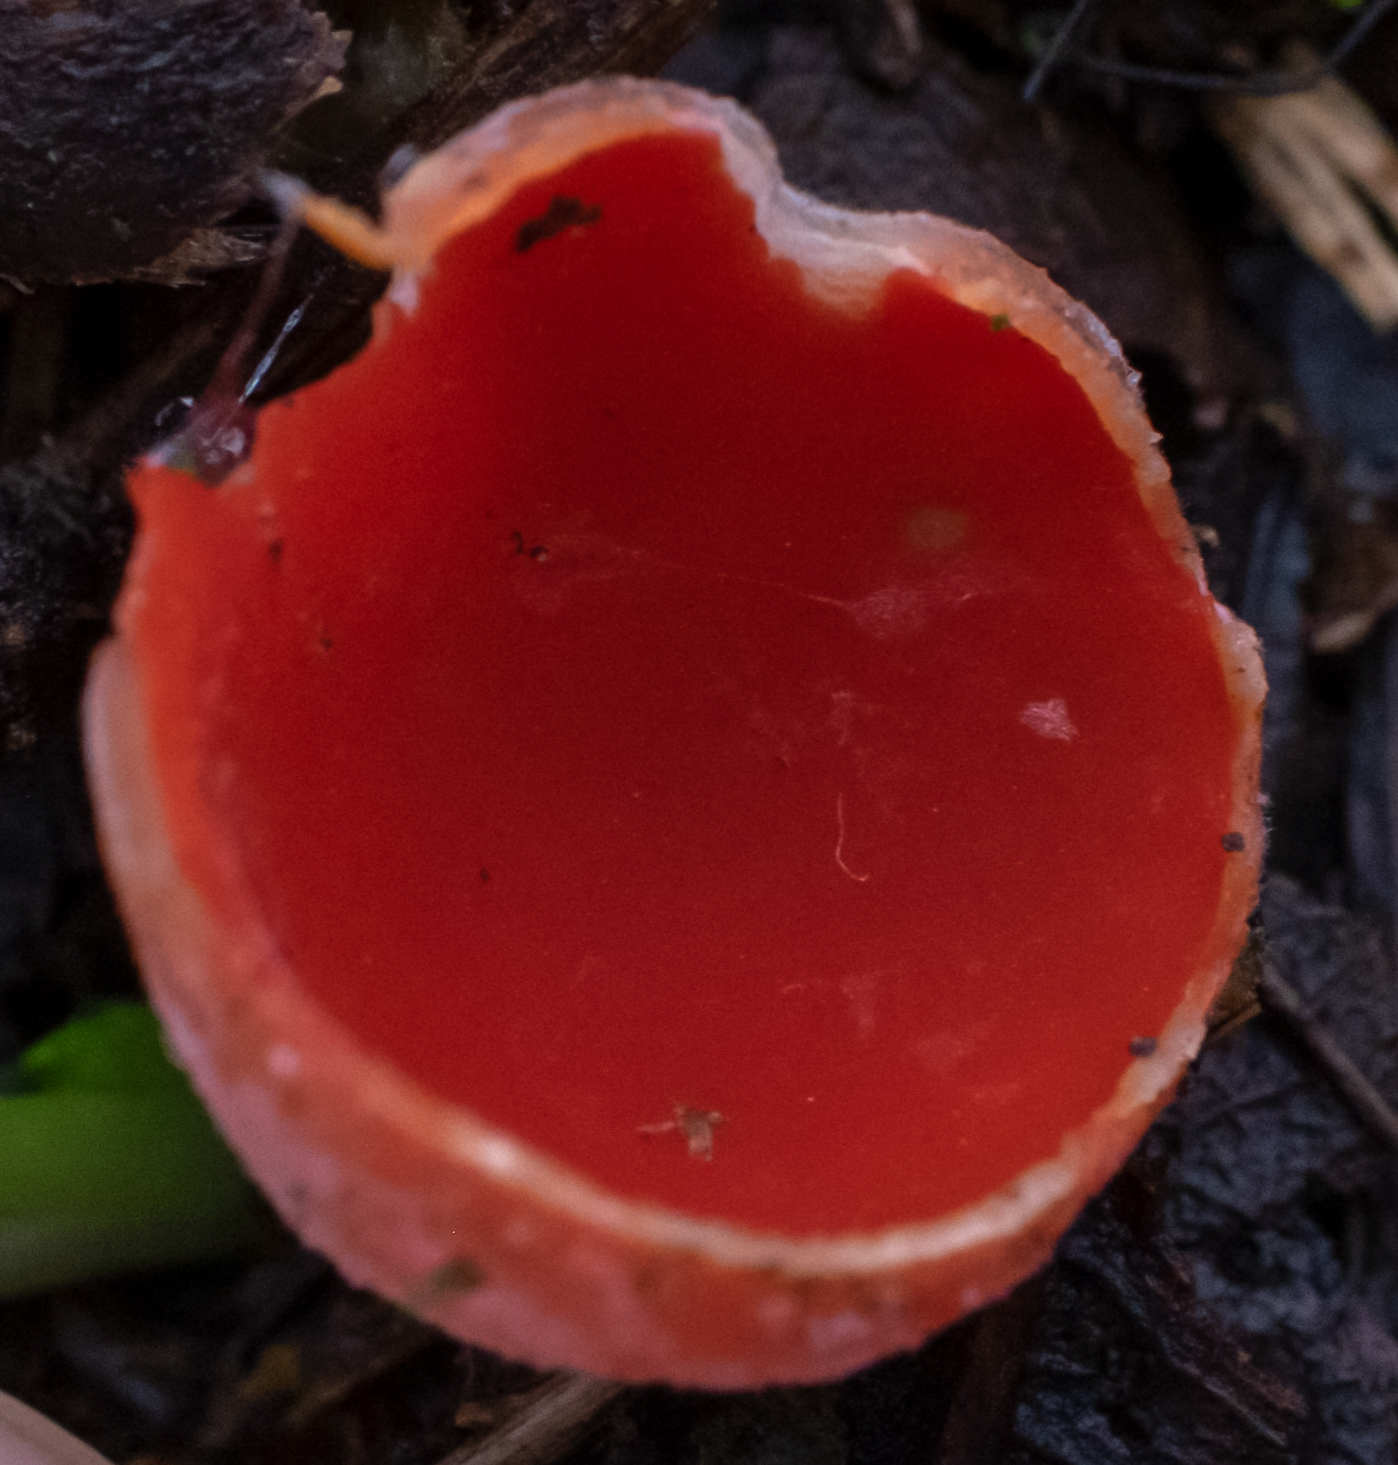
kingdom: Fungi
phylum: Ascomycota
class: Pezizomycetes
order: Pezizales
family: Sarcoscyphaceae
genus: Sarcoscypha
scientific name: Sarcoscypha
